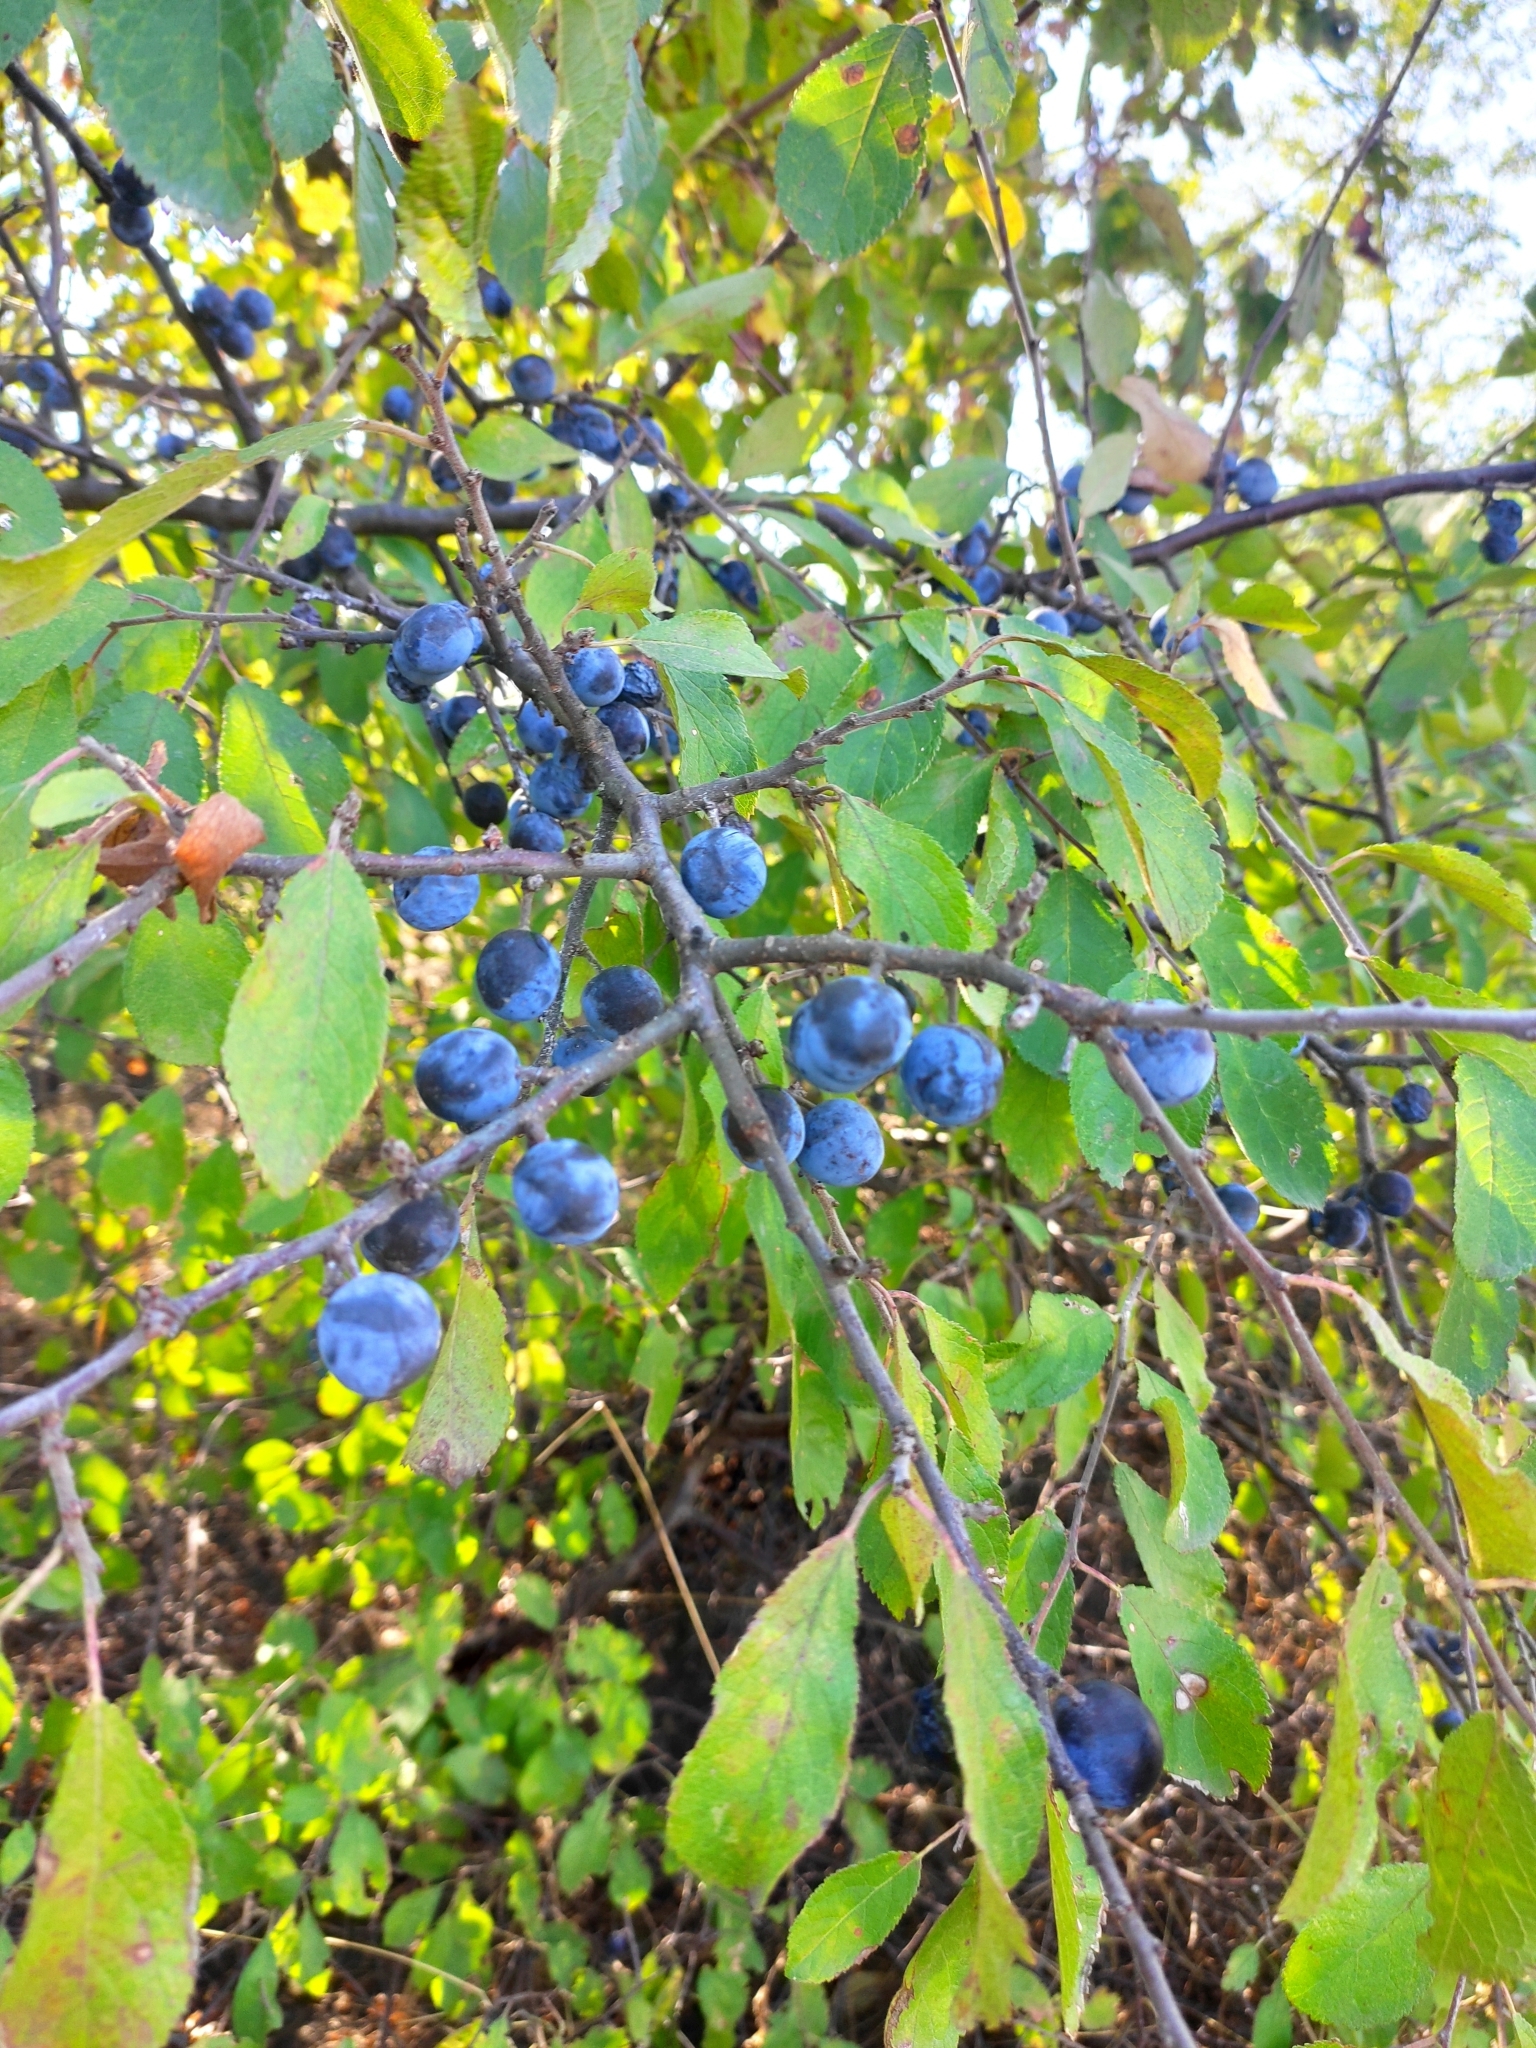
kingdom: Plantae
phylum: Tracheophyta
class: Magnoliopsida
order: Rosales
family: Rosaceae
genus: Prunus
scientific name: Prunus spinosa
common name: Blackthorn
